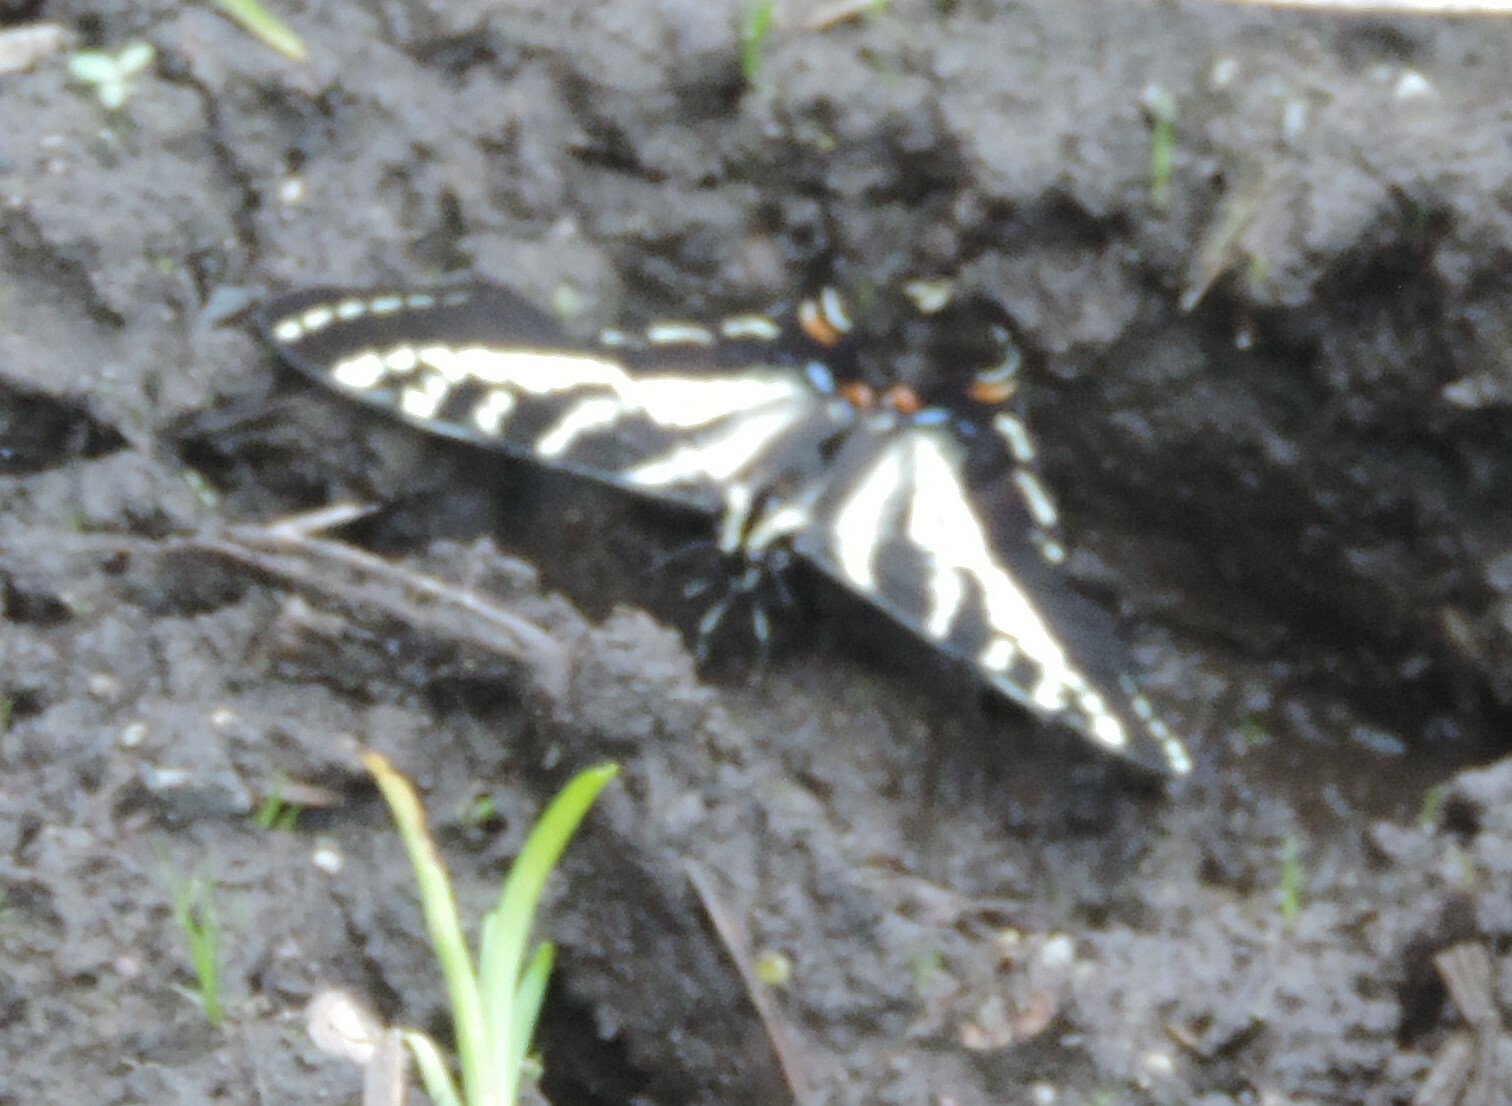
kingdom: Animalia
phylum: Arthropoda
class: Insecta
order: Lepidoptera
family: Papilionidae
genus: Papilio
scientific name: Papilio eurymedon
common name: Pale tiger swallowtail
